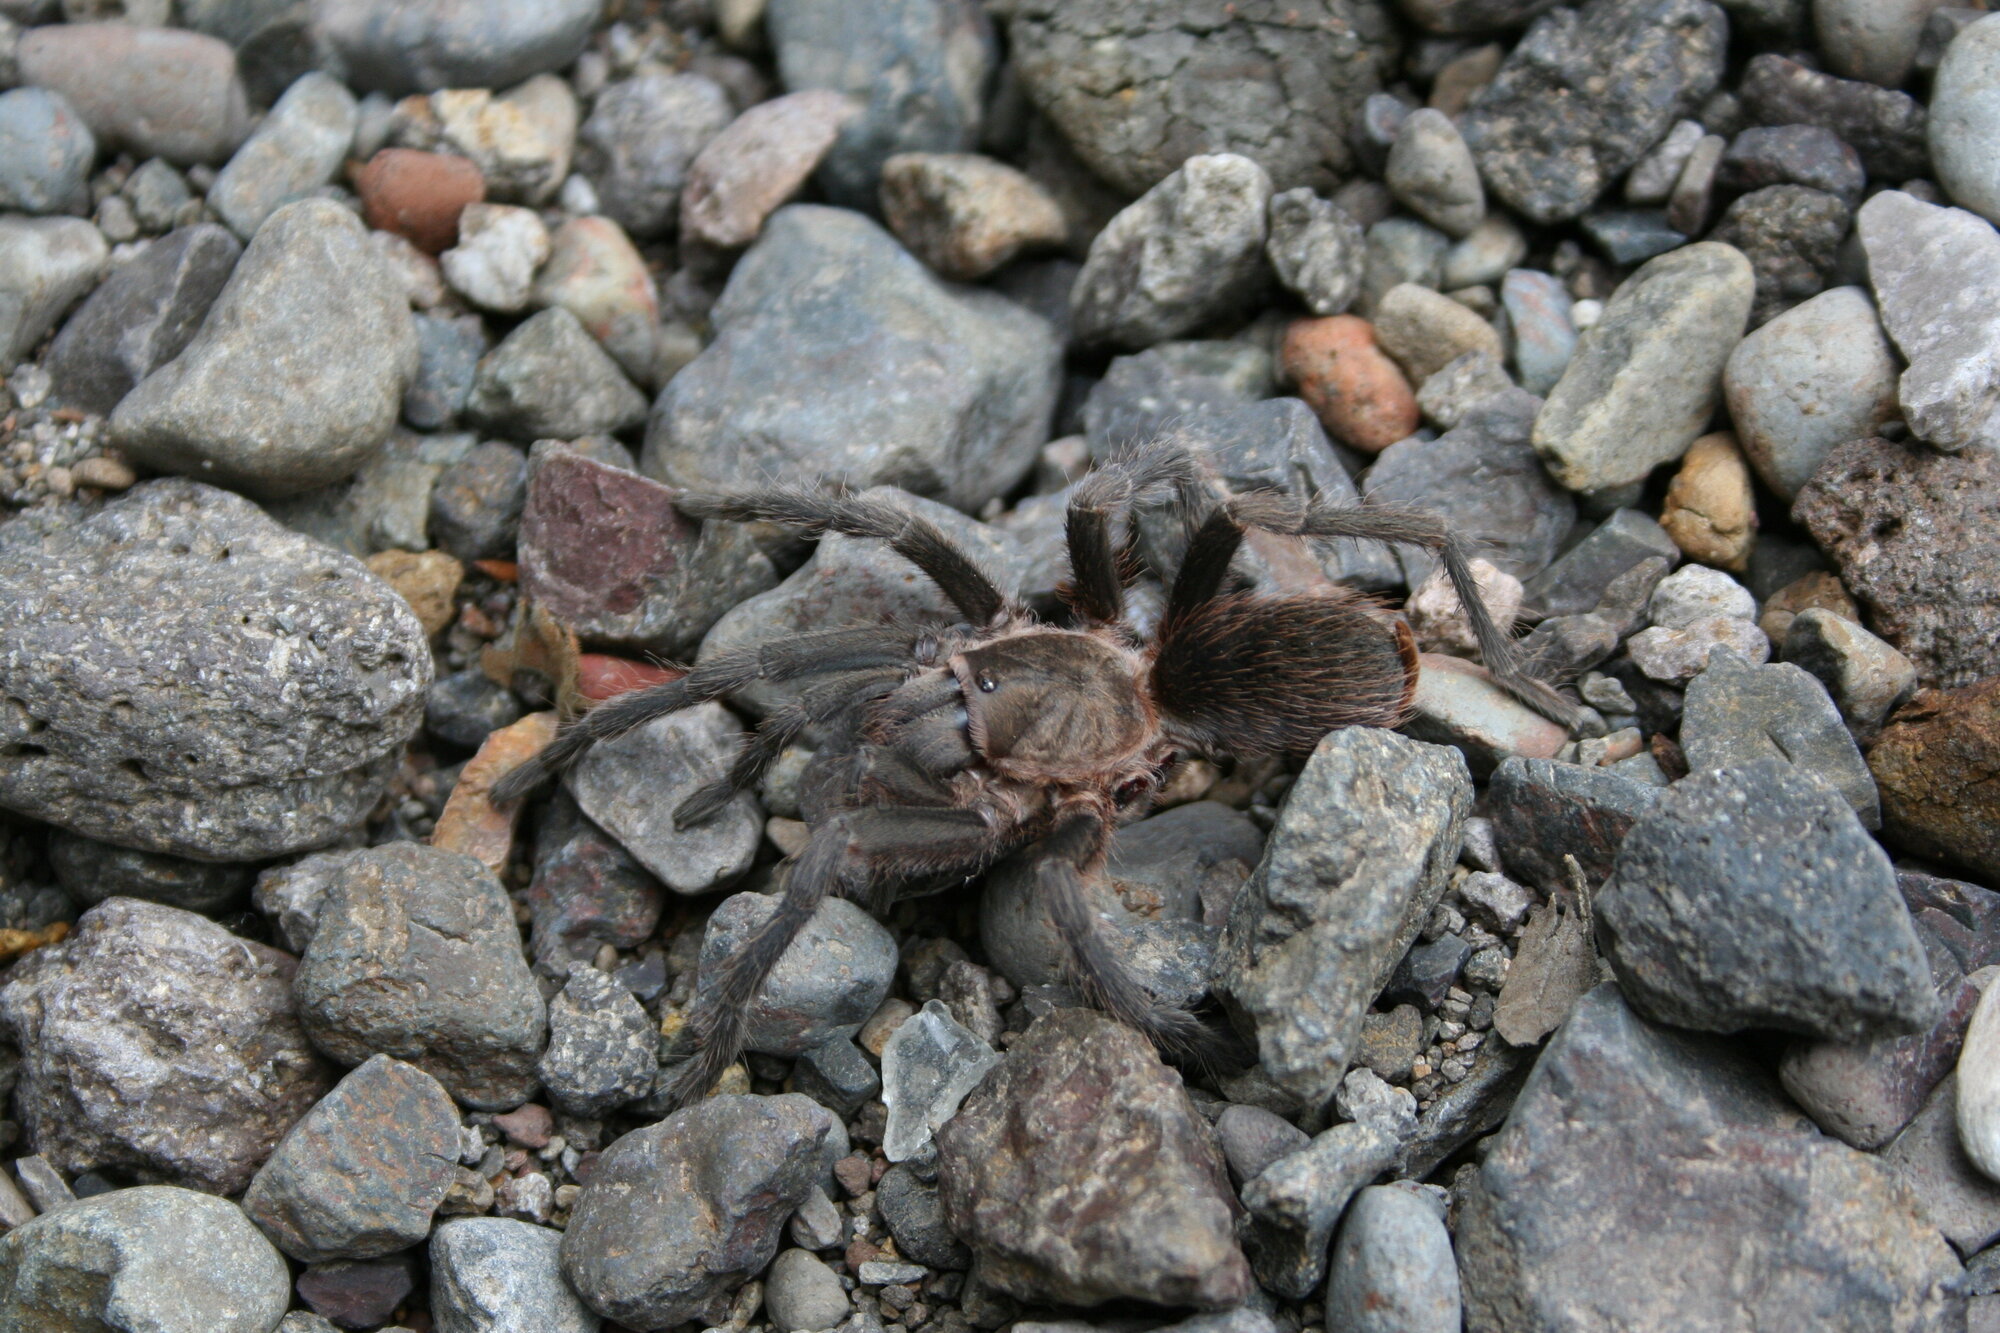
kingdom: Animalia
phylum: Arthropoda
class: Arachnida
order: Araneae
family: Theraphosidae
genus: Aphonopelma
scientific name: Aphonopelma crinirufum
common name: Tarantula spiders
